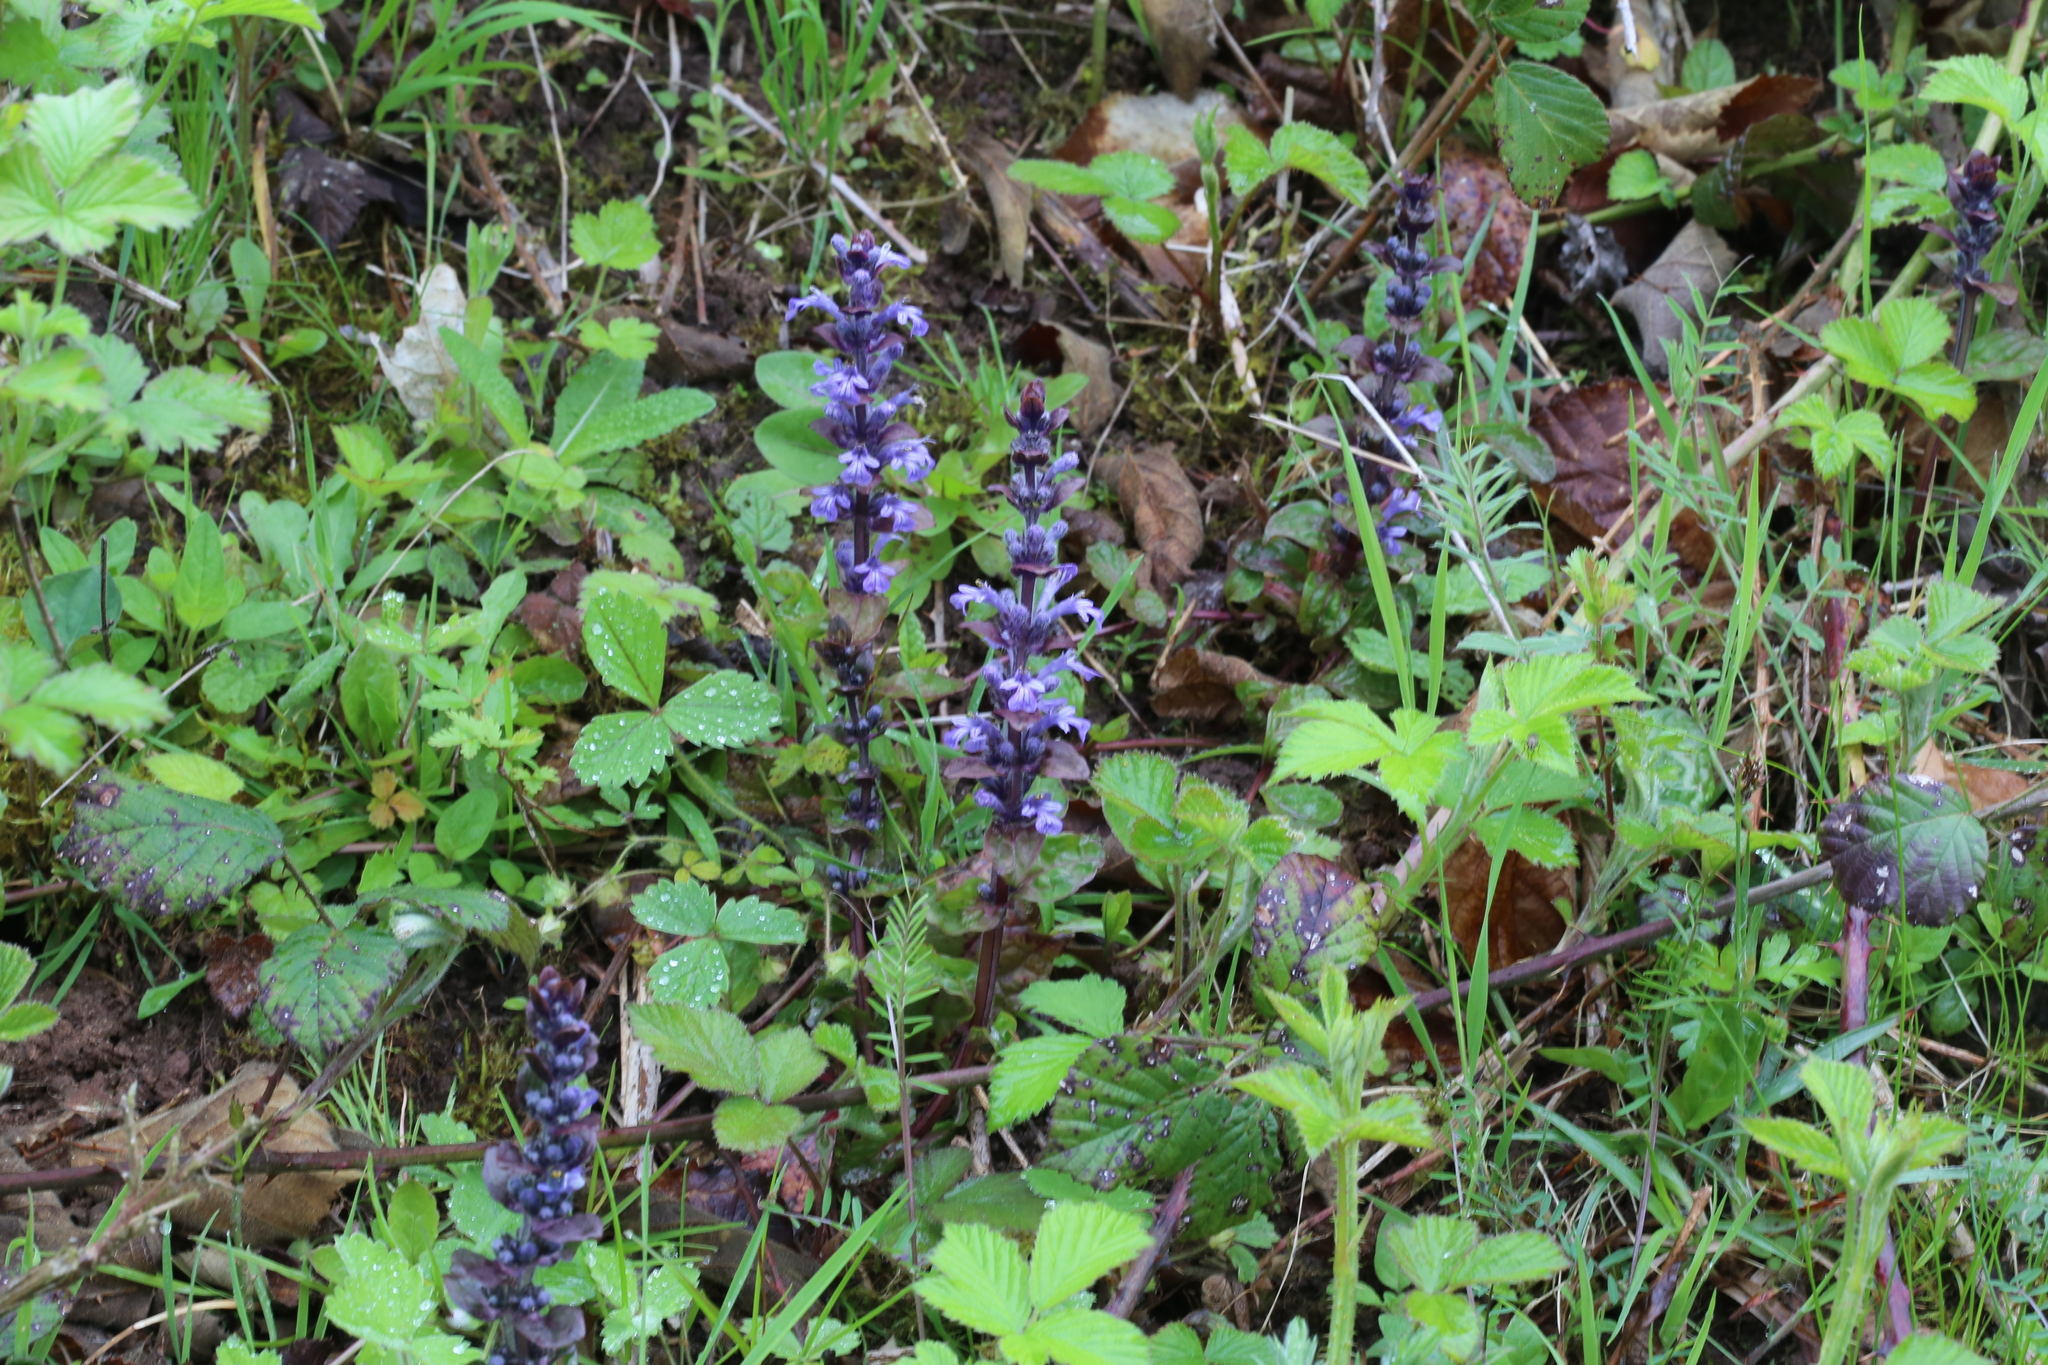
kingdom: Plantae
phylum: Tracheophyta
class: Magnoliopsida
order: Lamiales
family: Lamiaceae
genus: Ajuga
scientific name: Ajuga reptans
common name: Bugle
